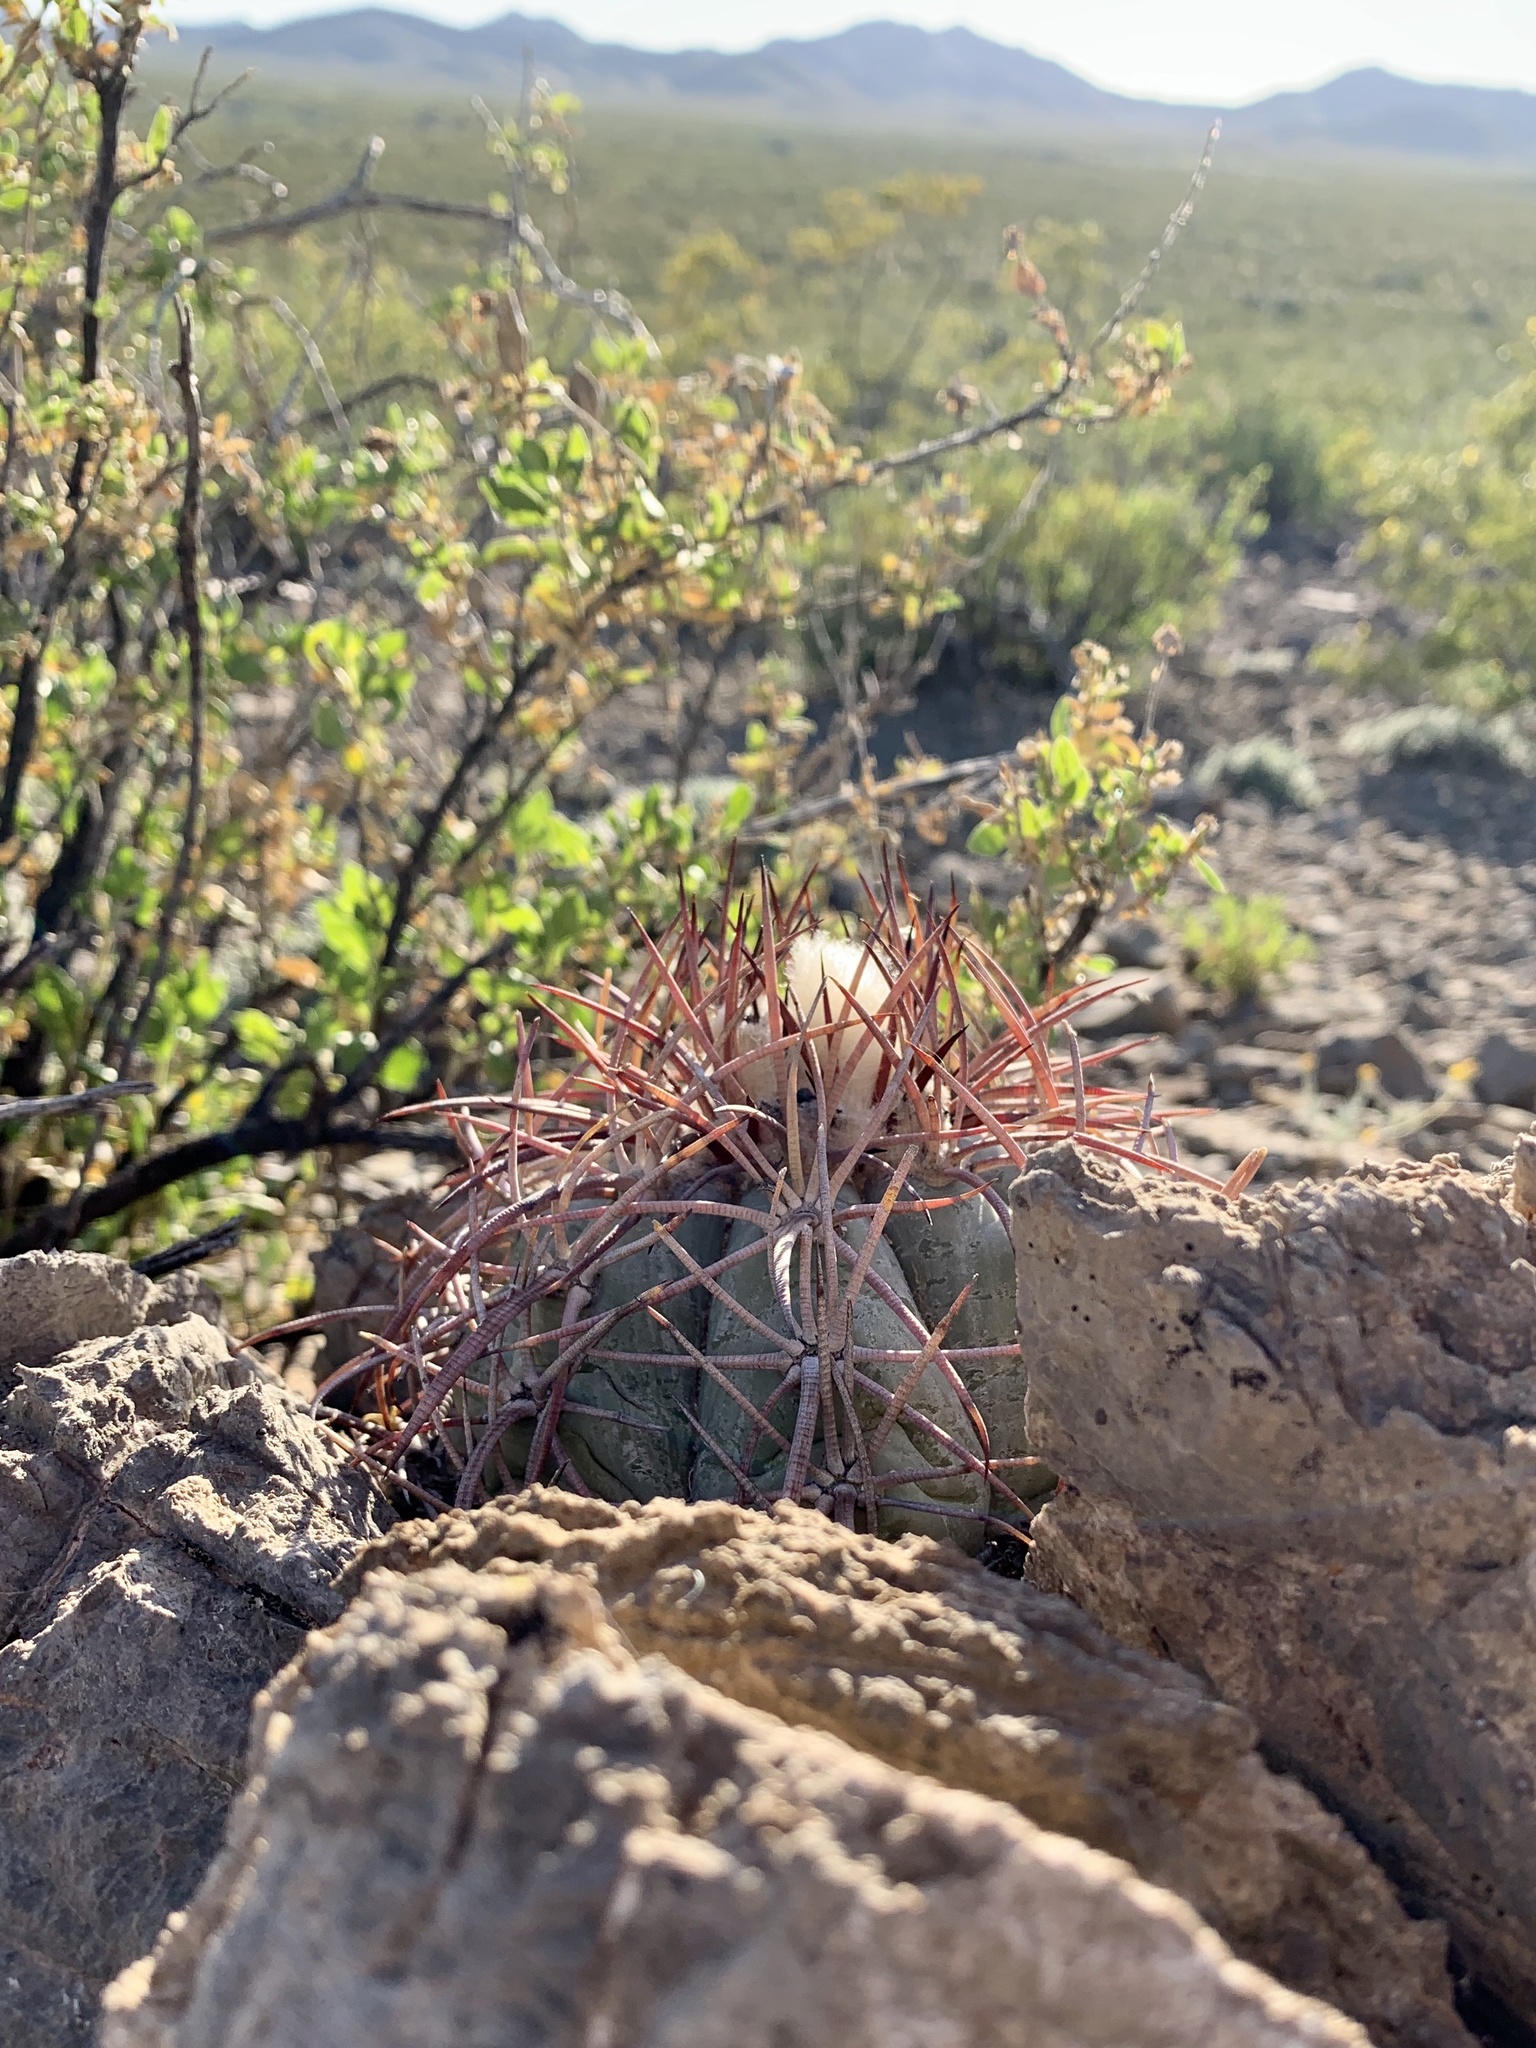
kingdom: Plantae
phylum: Tracheophyta
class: Magnoliopsida
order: Caryophyllales
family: Cactaceae
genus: Echinocactus
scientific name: Echinocactus horizonthalonius
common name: Devilshead
